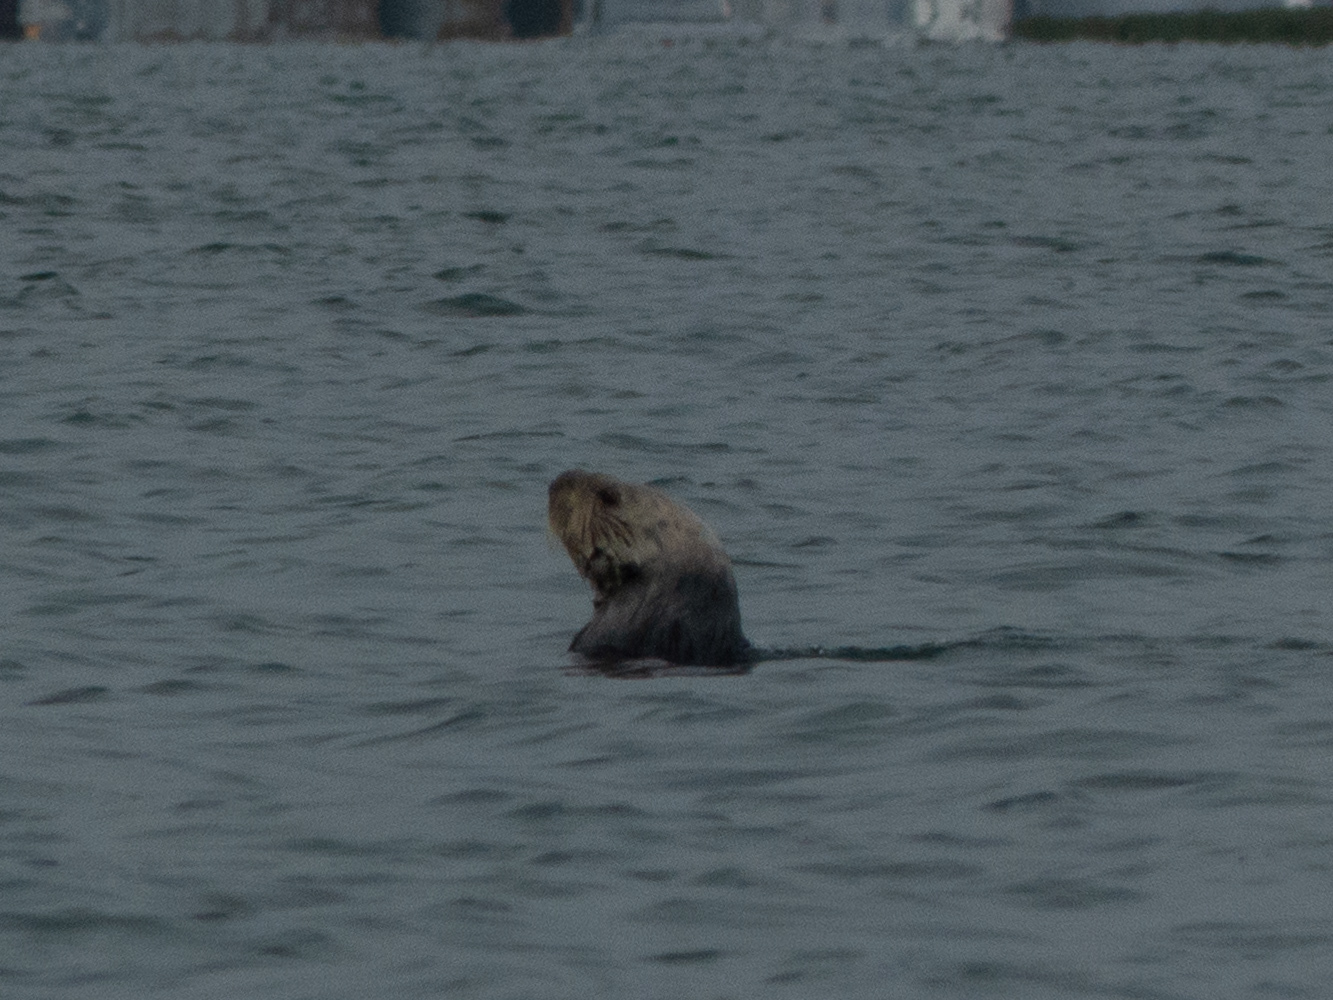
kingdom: Animalia
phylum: Chordata
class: Mammalia
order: Carnivora
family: Mustelidae
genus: Enhydra
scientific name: Enhydra lutris
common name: Sea otter
